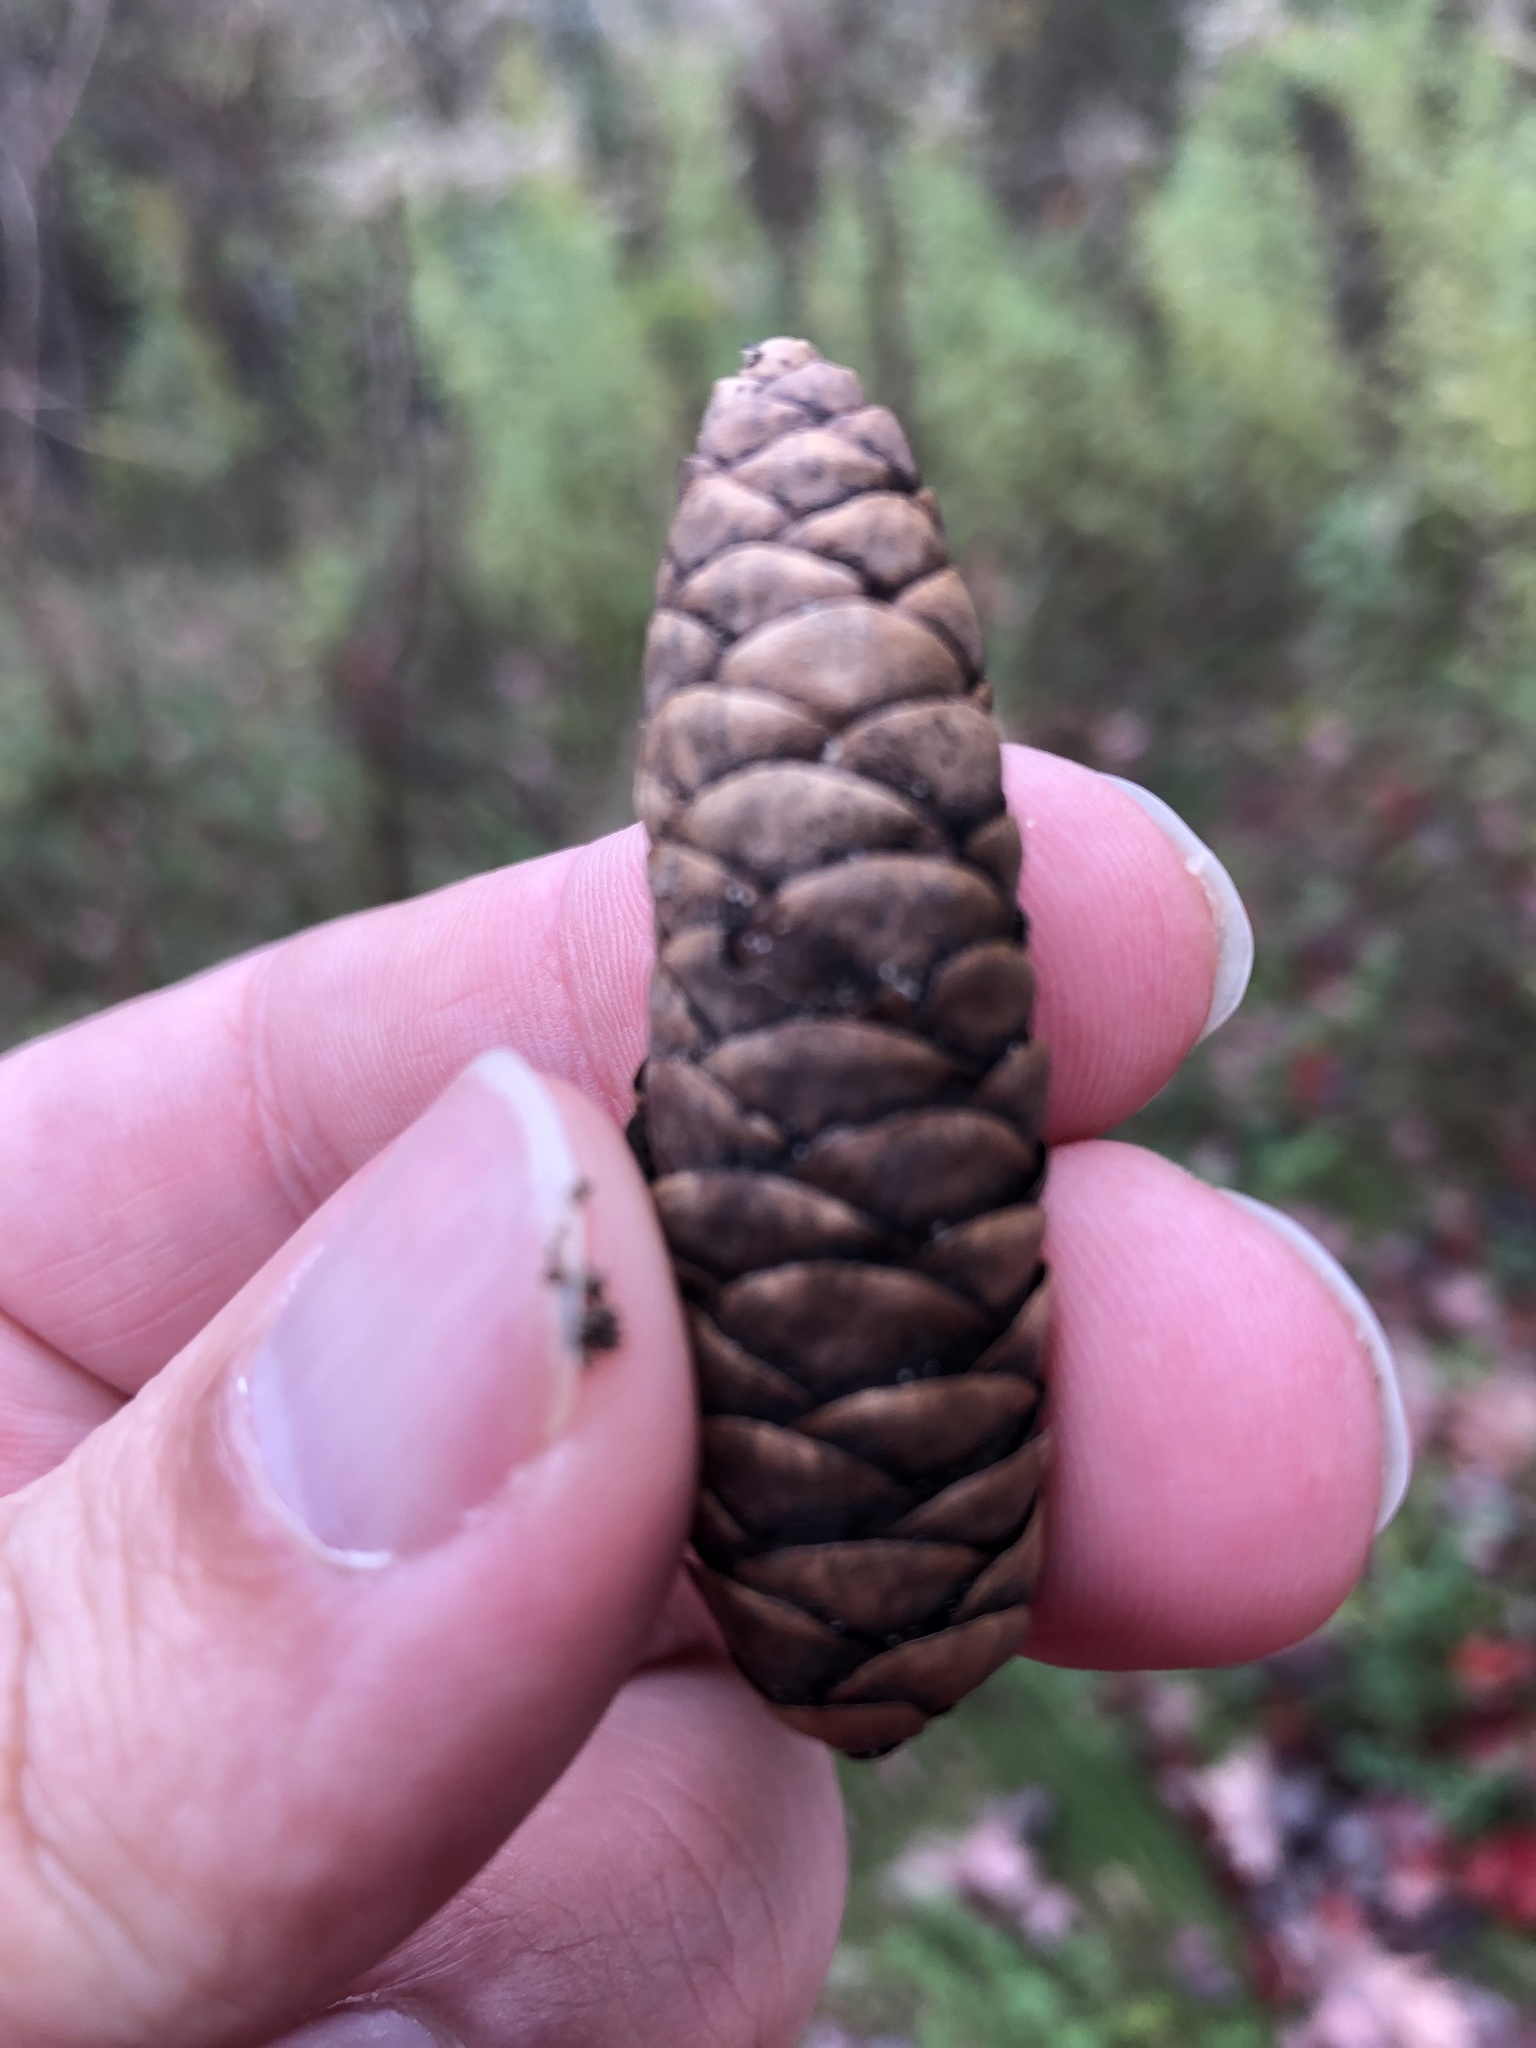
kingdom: Plantae
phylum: Tracheophyta
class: Pinopsida
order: Pinales
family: Pinaceae
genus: Picea
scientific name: Picea glauca
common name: White spruce
